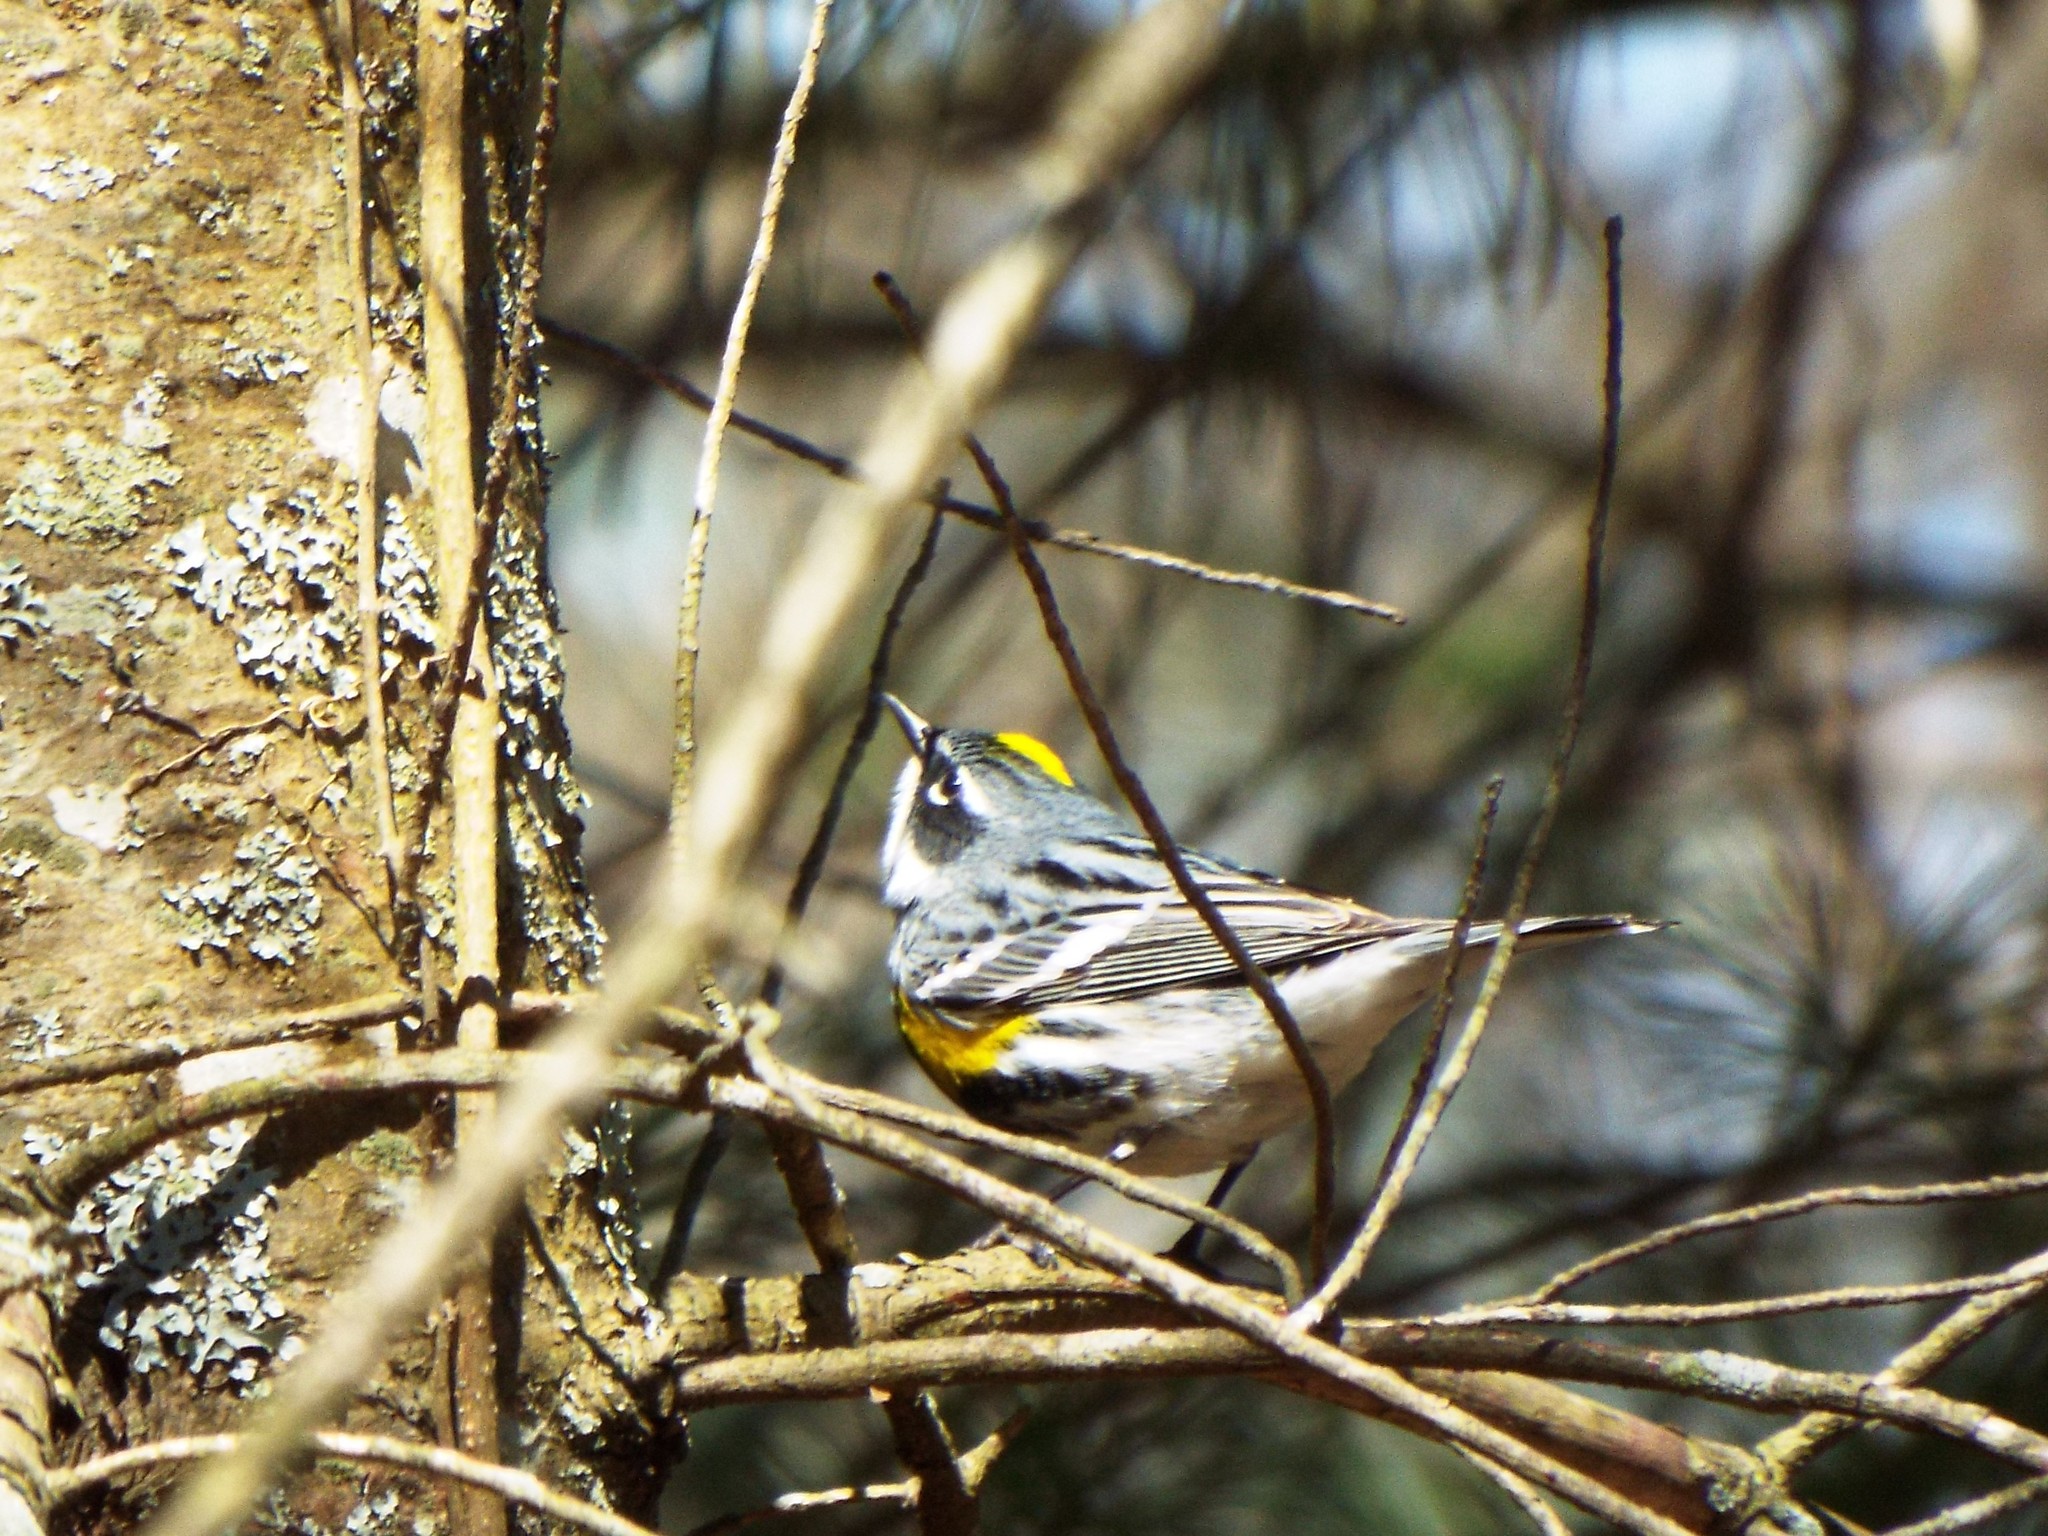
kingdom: Animalia
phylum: Chordata
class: Aves
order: Passeriformes
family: Parulidae
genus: Setophaga
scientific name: Setophaga coronata
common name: Myrtle warbler
